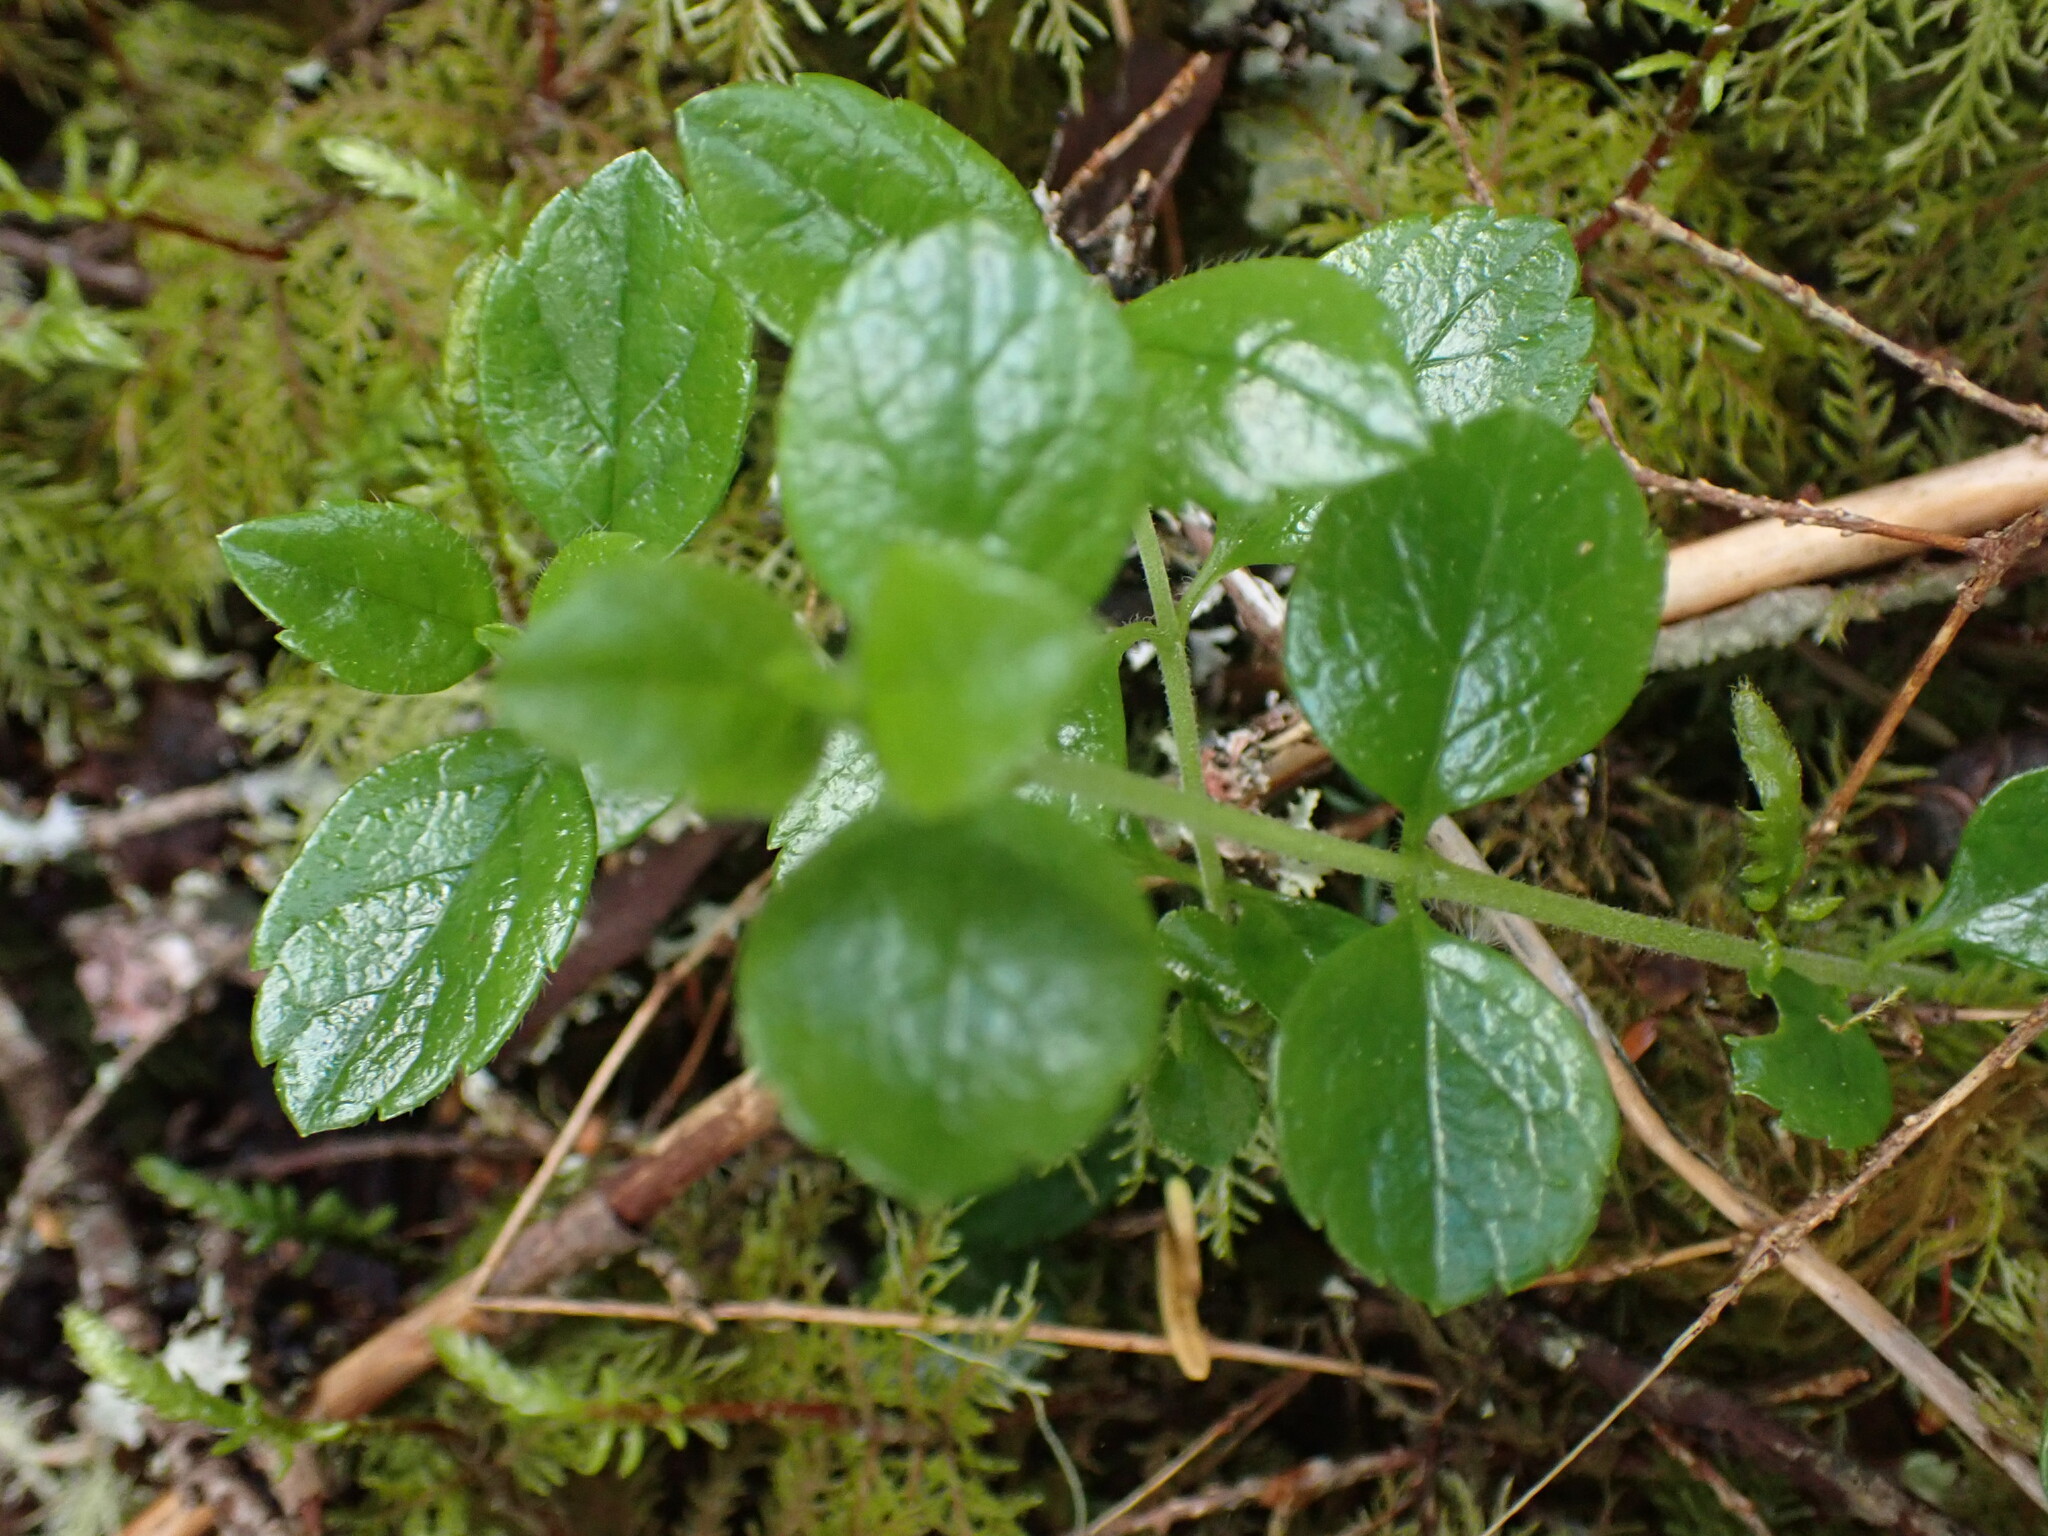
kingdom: Plantae
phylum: Tracheophyta
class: Magnoliopsida
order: Dipsacales
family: Caprifoliaceae
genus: Linnaea
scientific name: Linnaea borealis
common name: Twinflower
